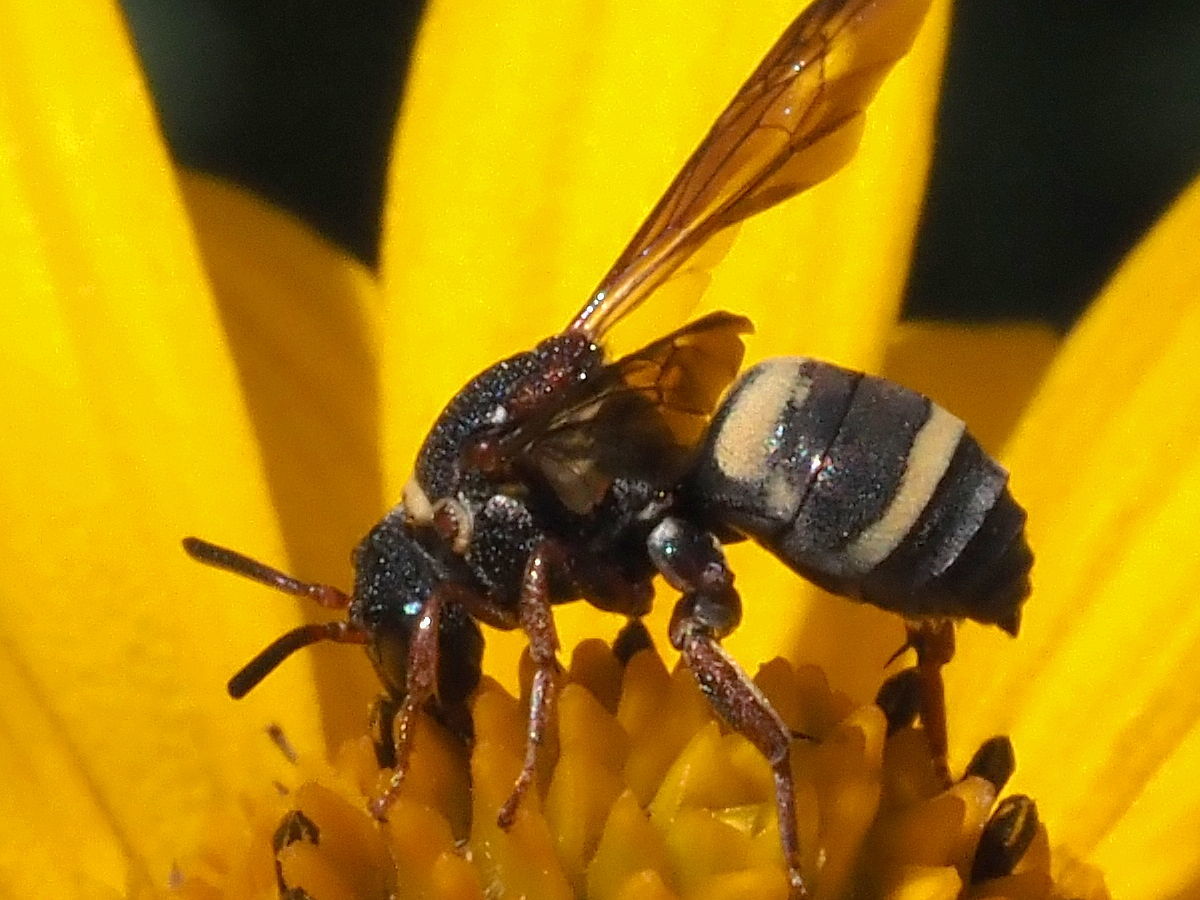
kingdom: Animalia
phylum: Arthropoda
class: Insecta
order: Hymenoptera
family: Apidae
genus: Epeolus
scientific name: Epeolus bifasciatus
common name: Two-banded cellophane-cuckoo
